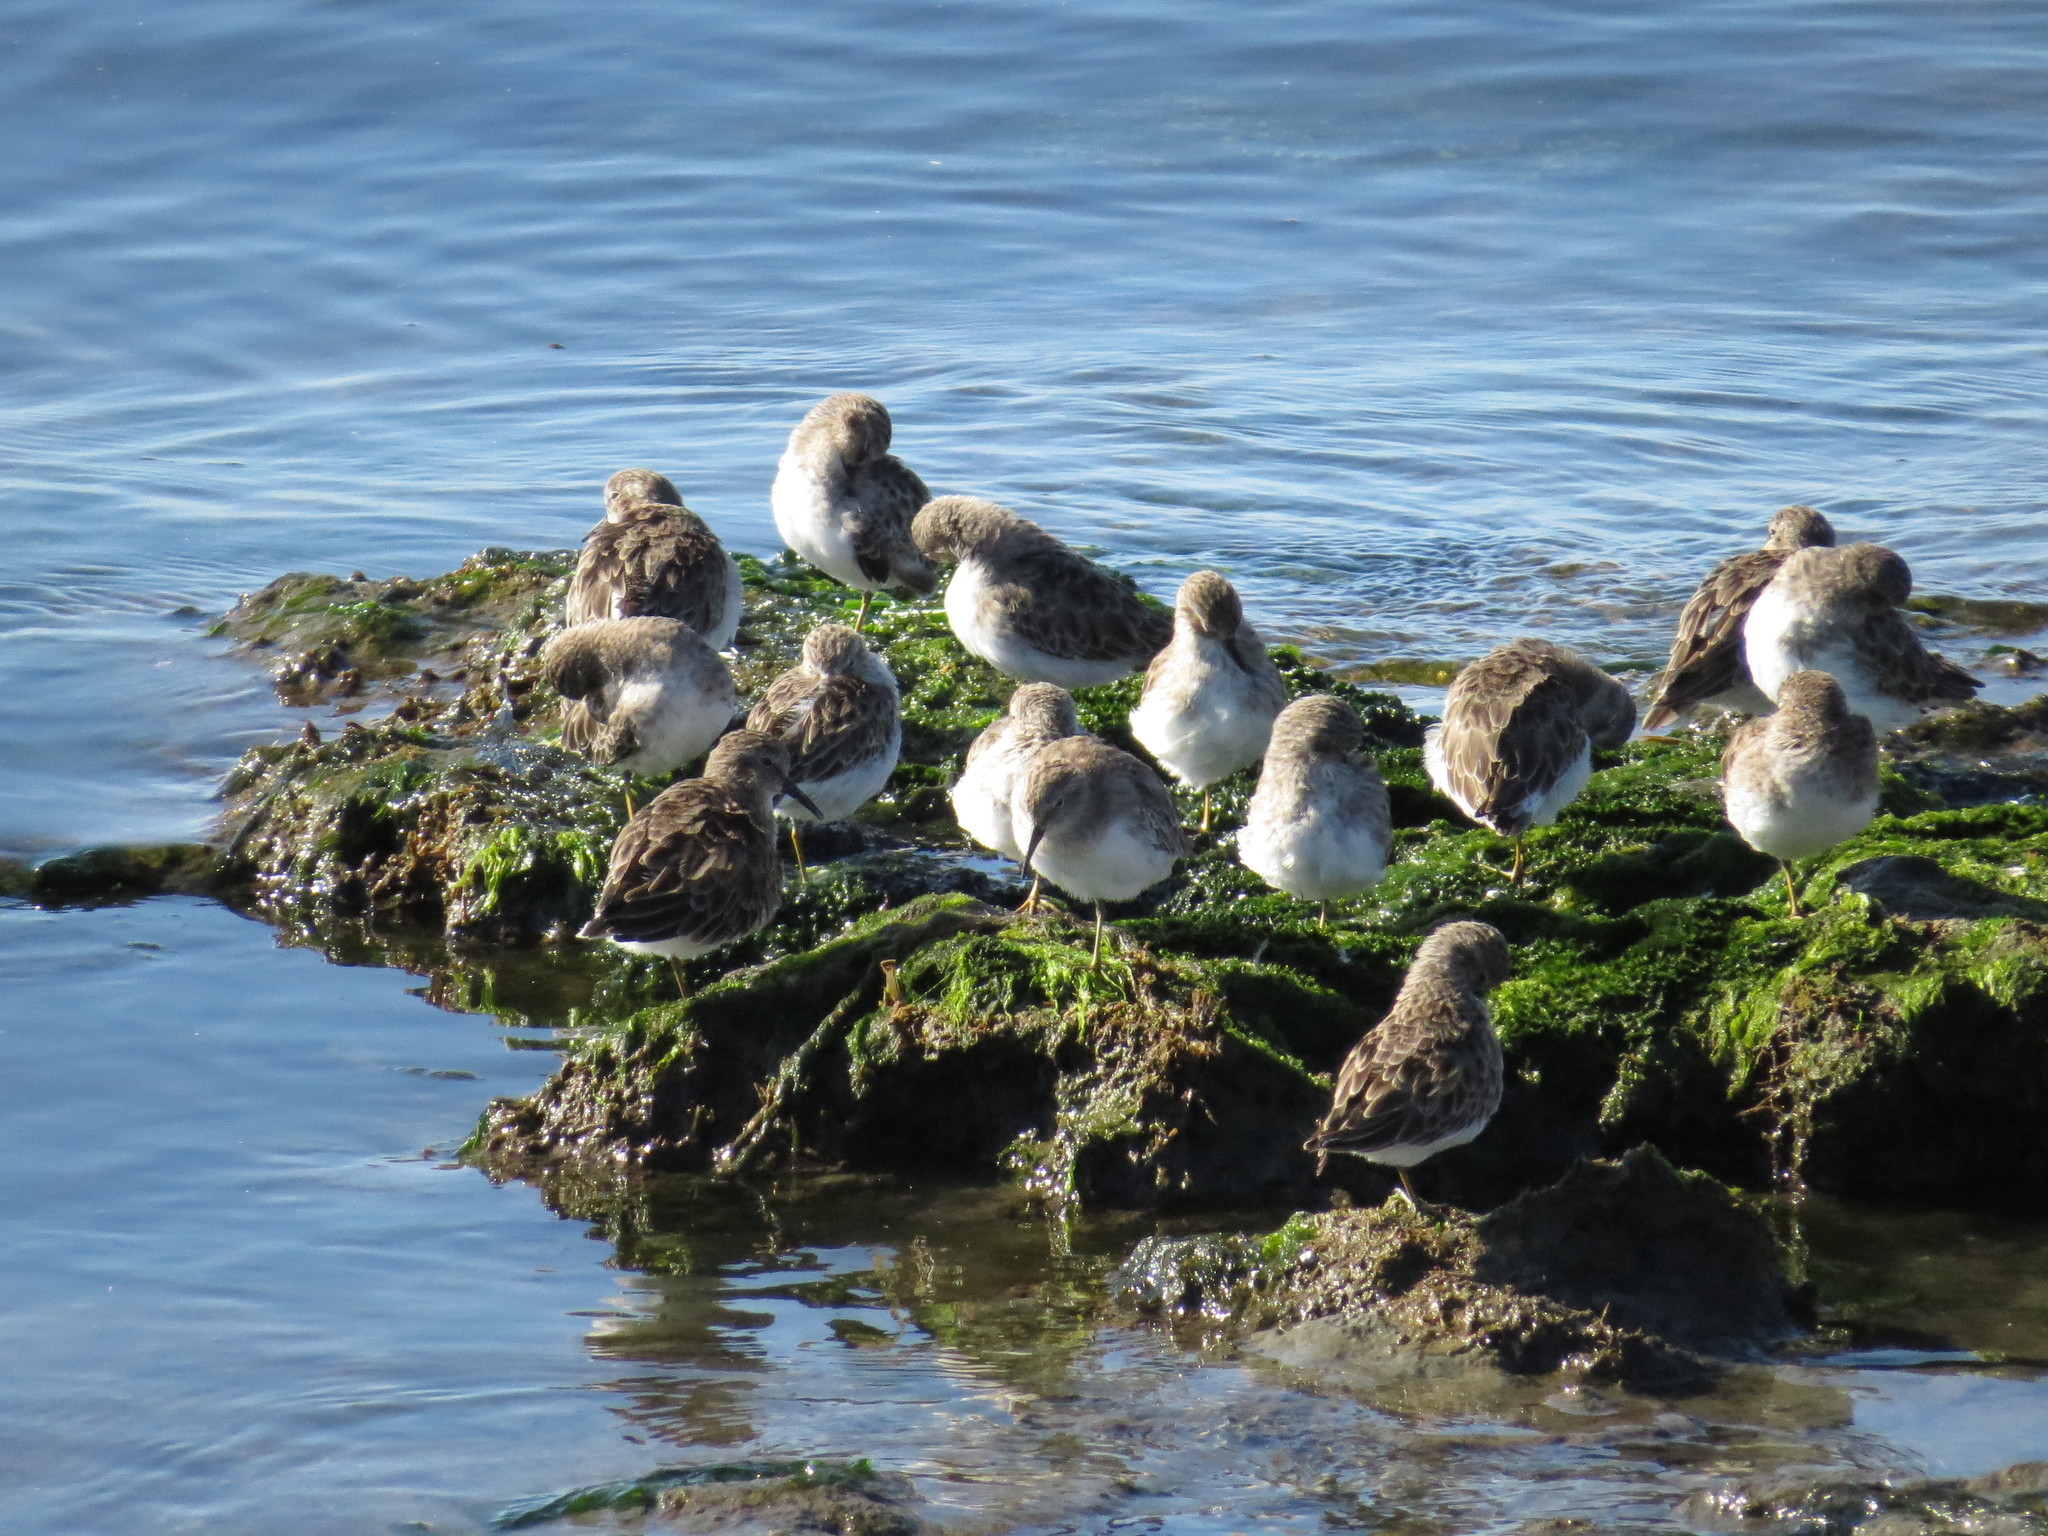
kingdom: Animalia
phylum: Chordata
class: Aves
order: Charadriiformes
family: Scolopacidae
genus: Calidris
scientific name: Calidris minutilla
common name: Least sandpiper
